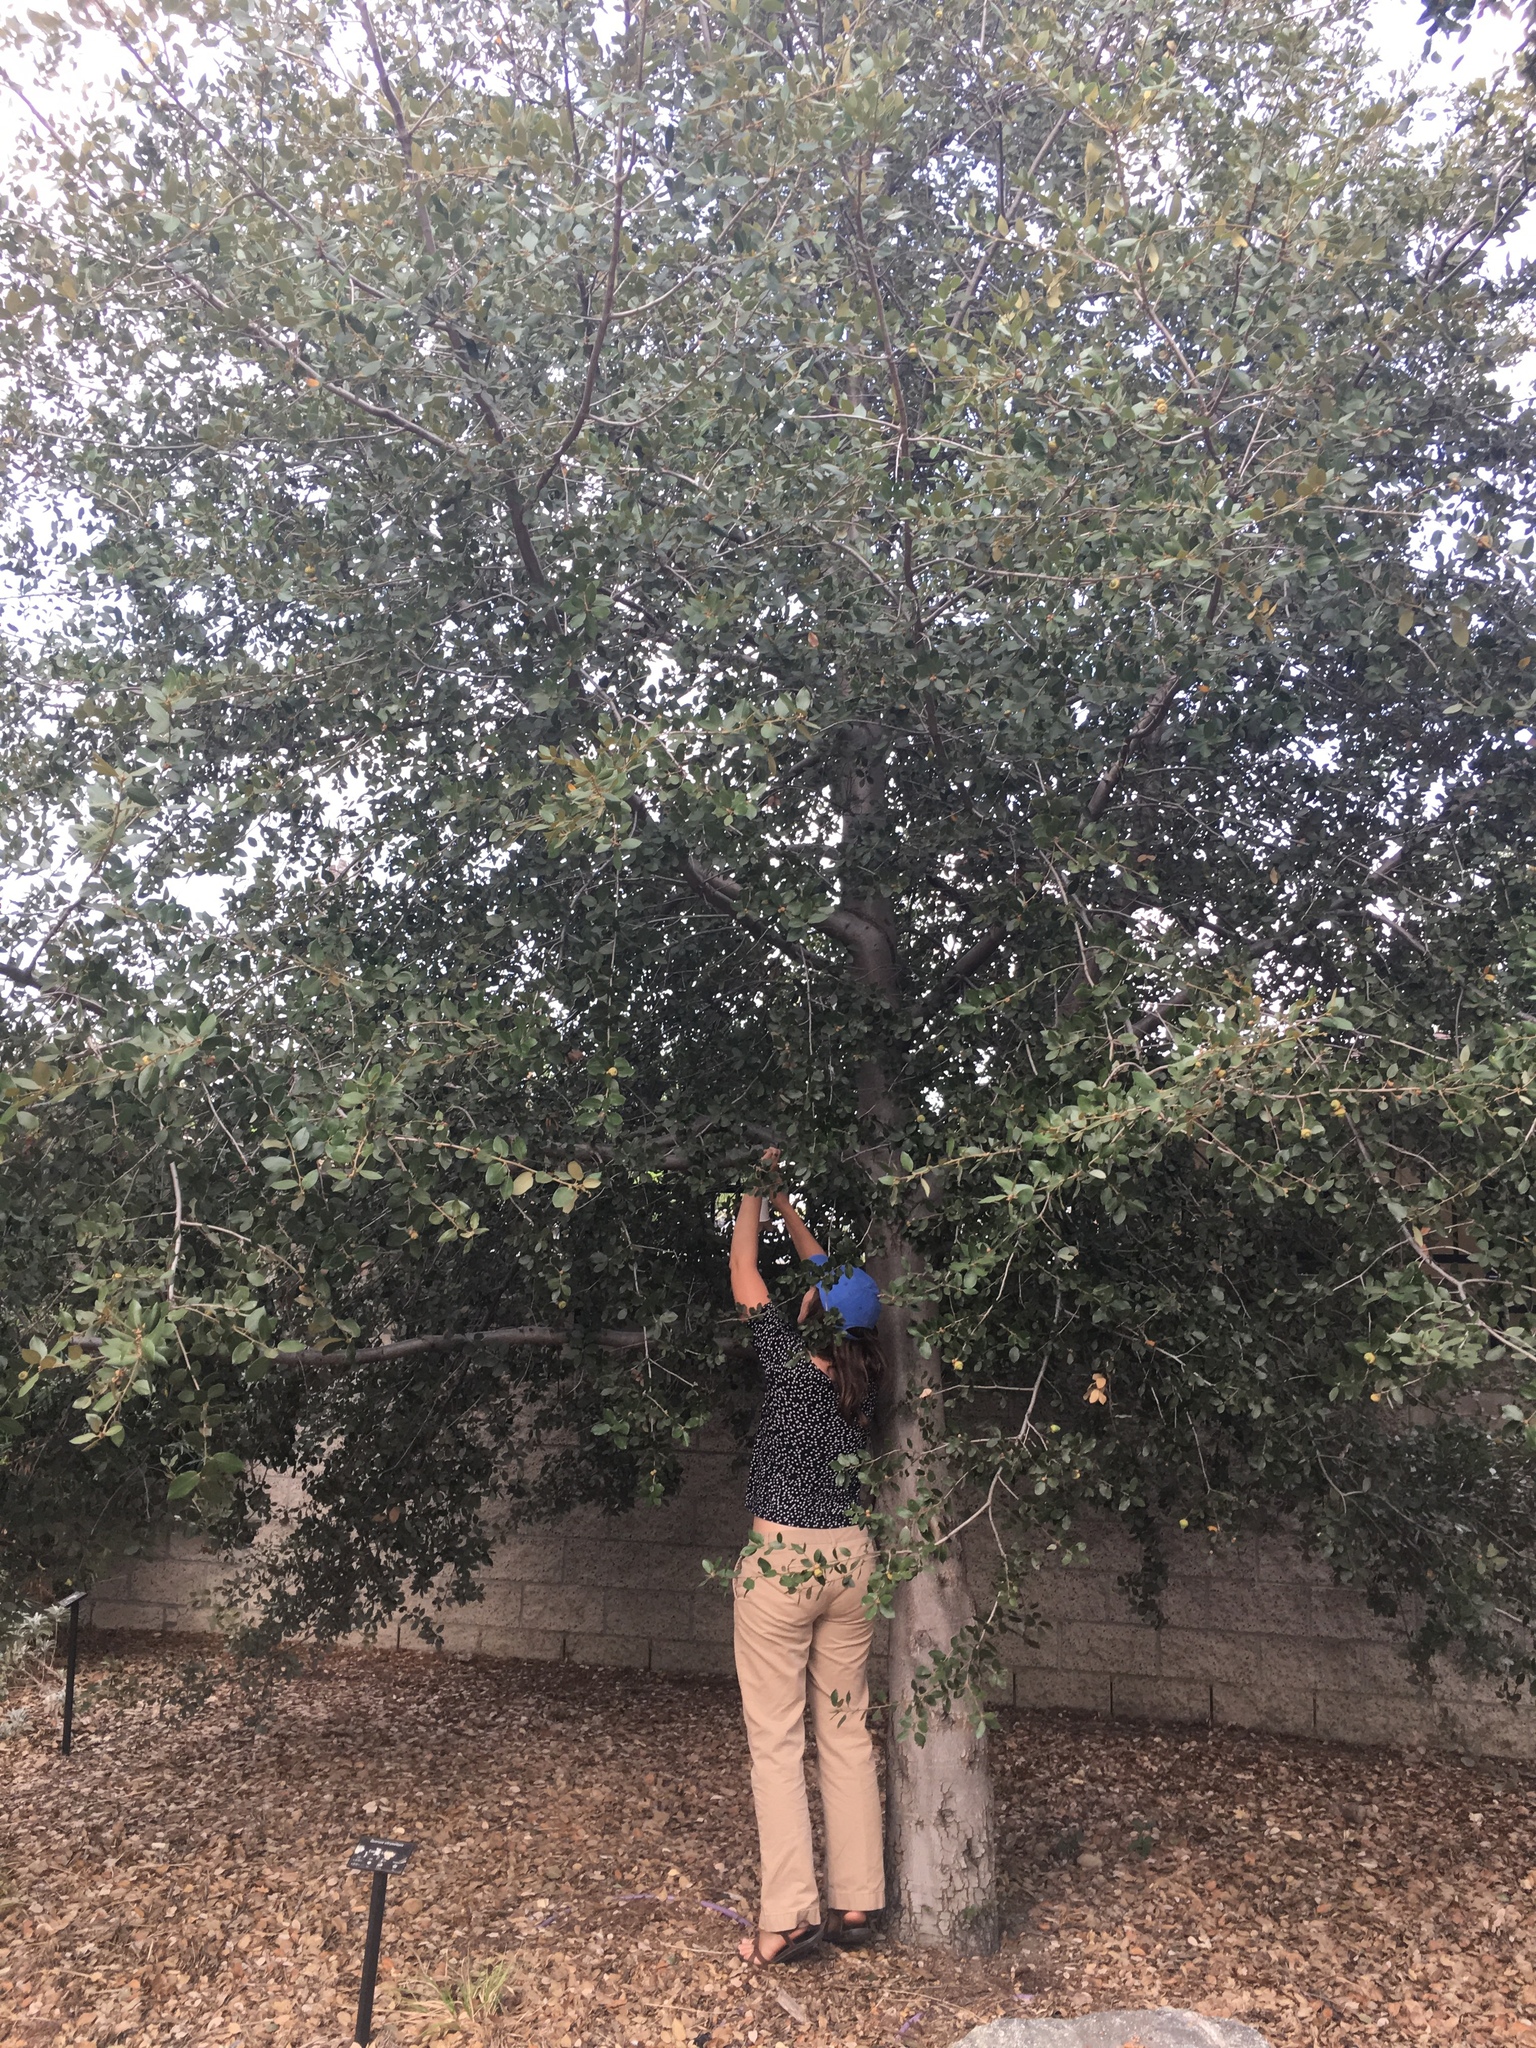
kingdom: Plantae
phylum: Tracheophyta
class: Magnoliopsida
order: Fagales
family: Fagaceae
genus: Quercus
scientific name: Quercus chrysolepis
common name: Canyon live oak
